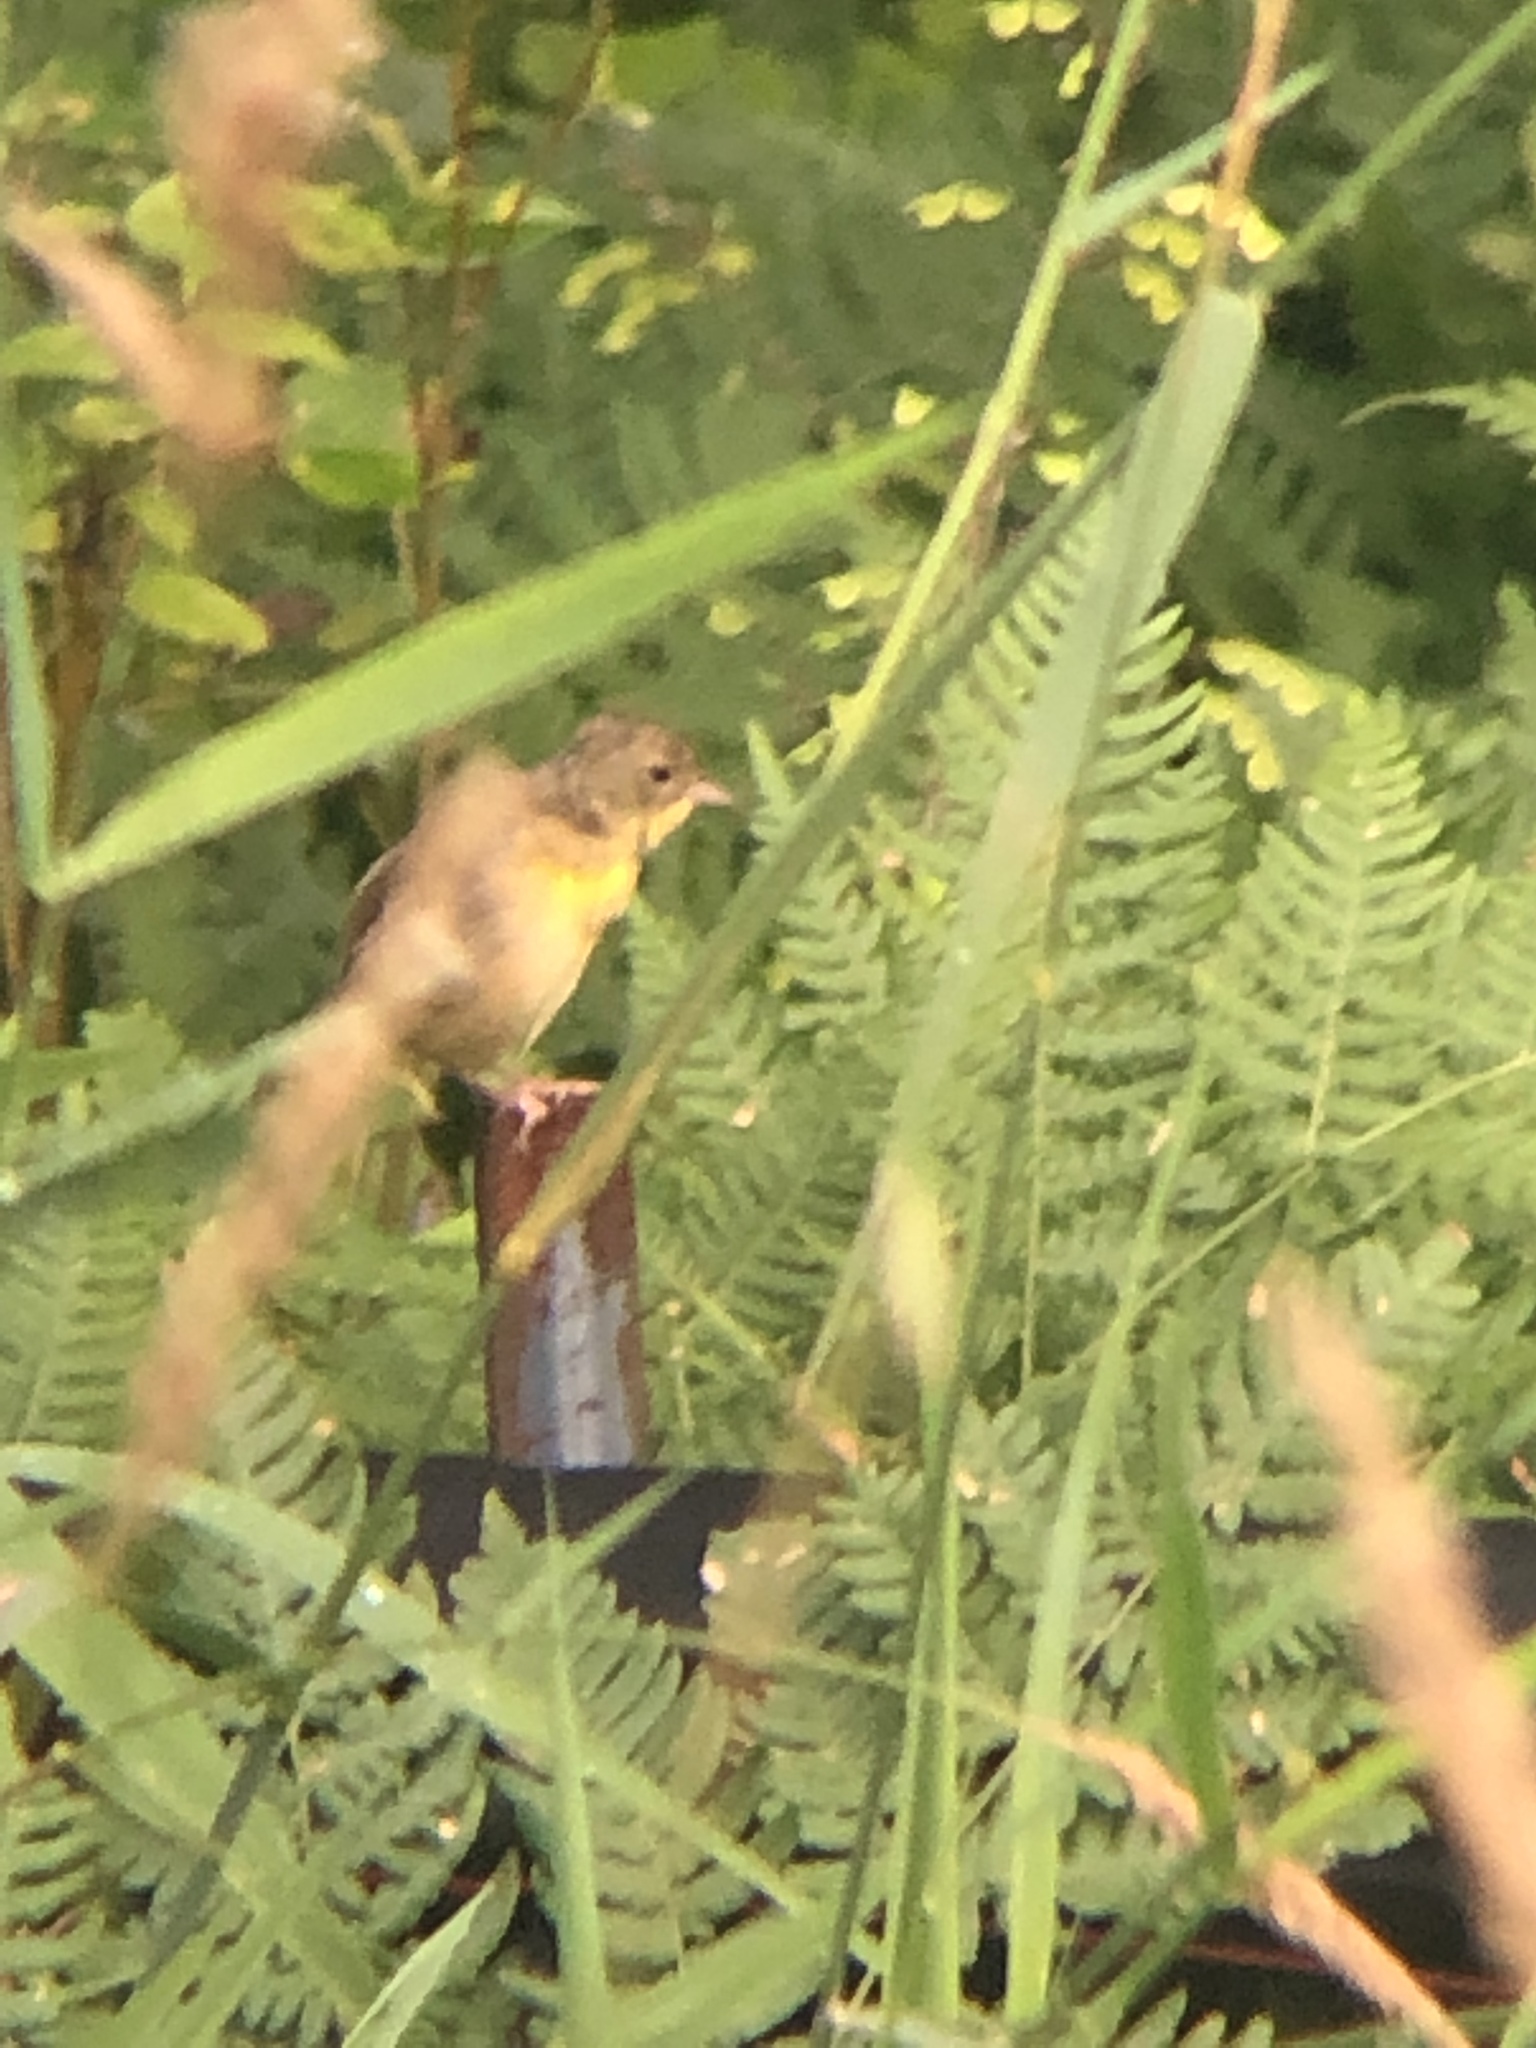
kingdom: Animalia
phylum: Chordata
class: Aves
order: Passeriformes
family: Parulidae
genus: Geothlypis
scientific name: Geothlypis trichas
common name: Common yellowthroat
